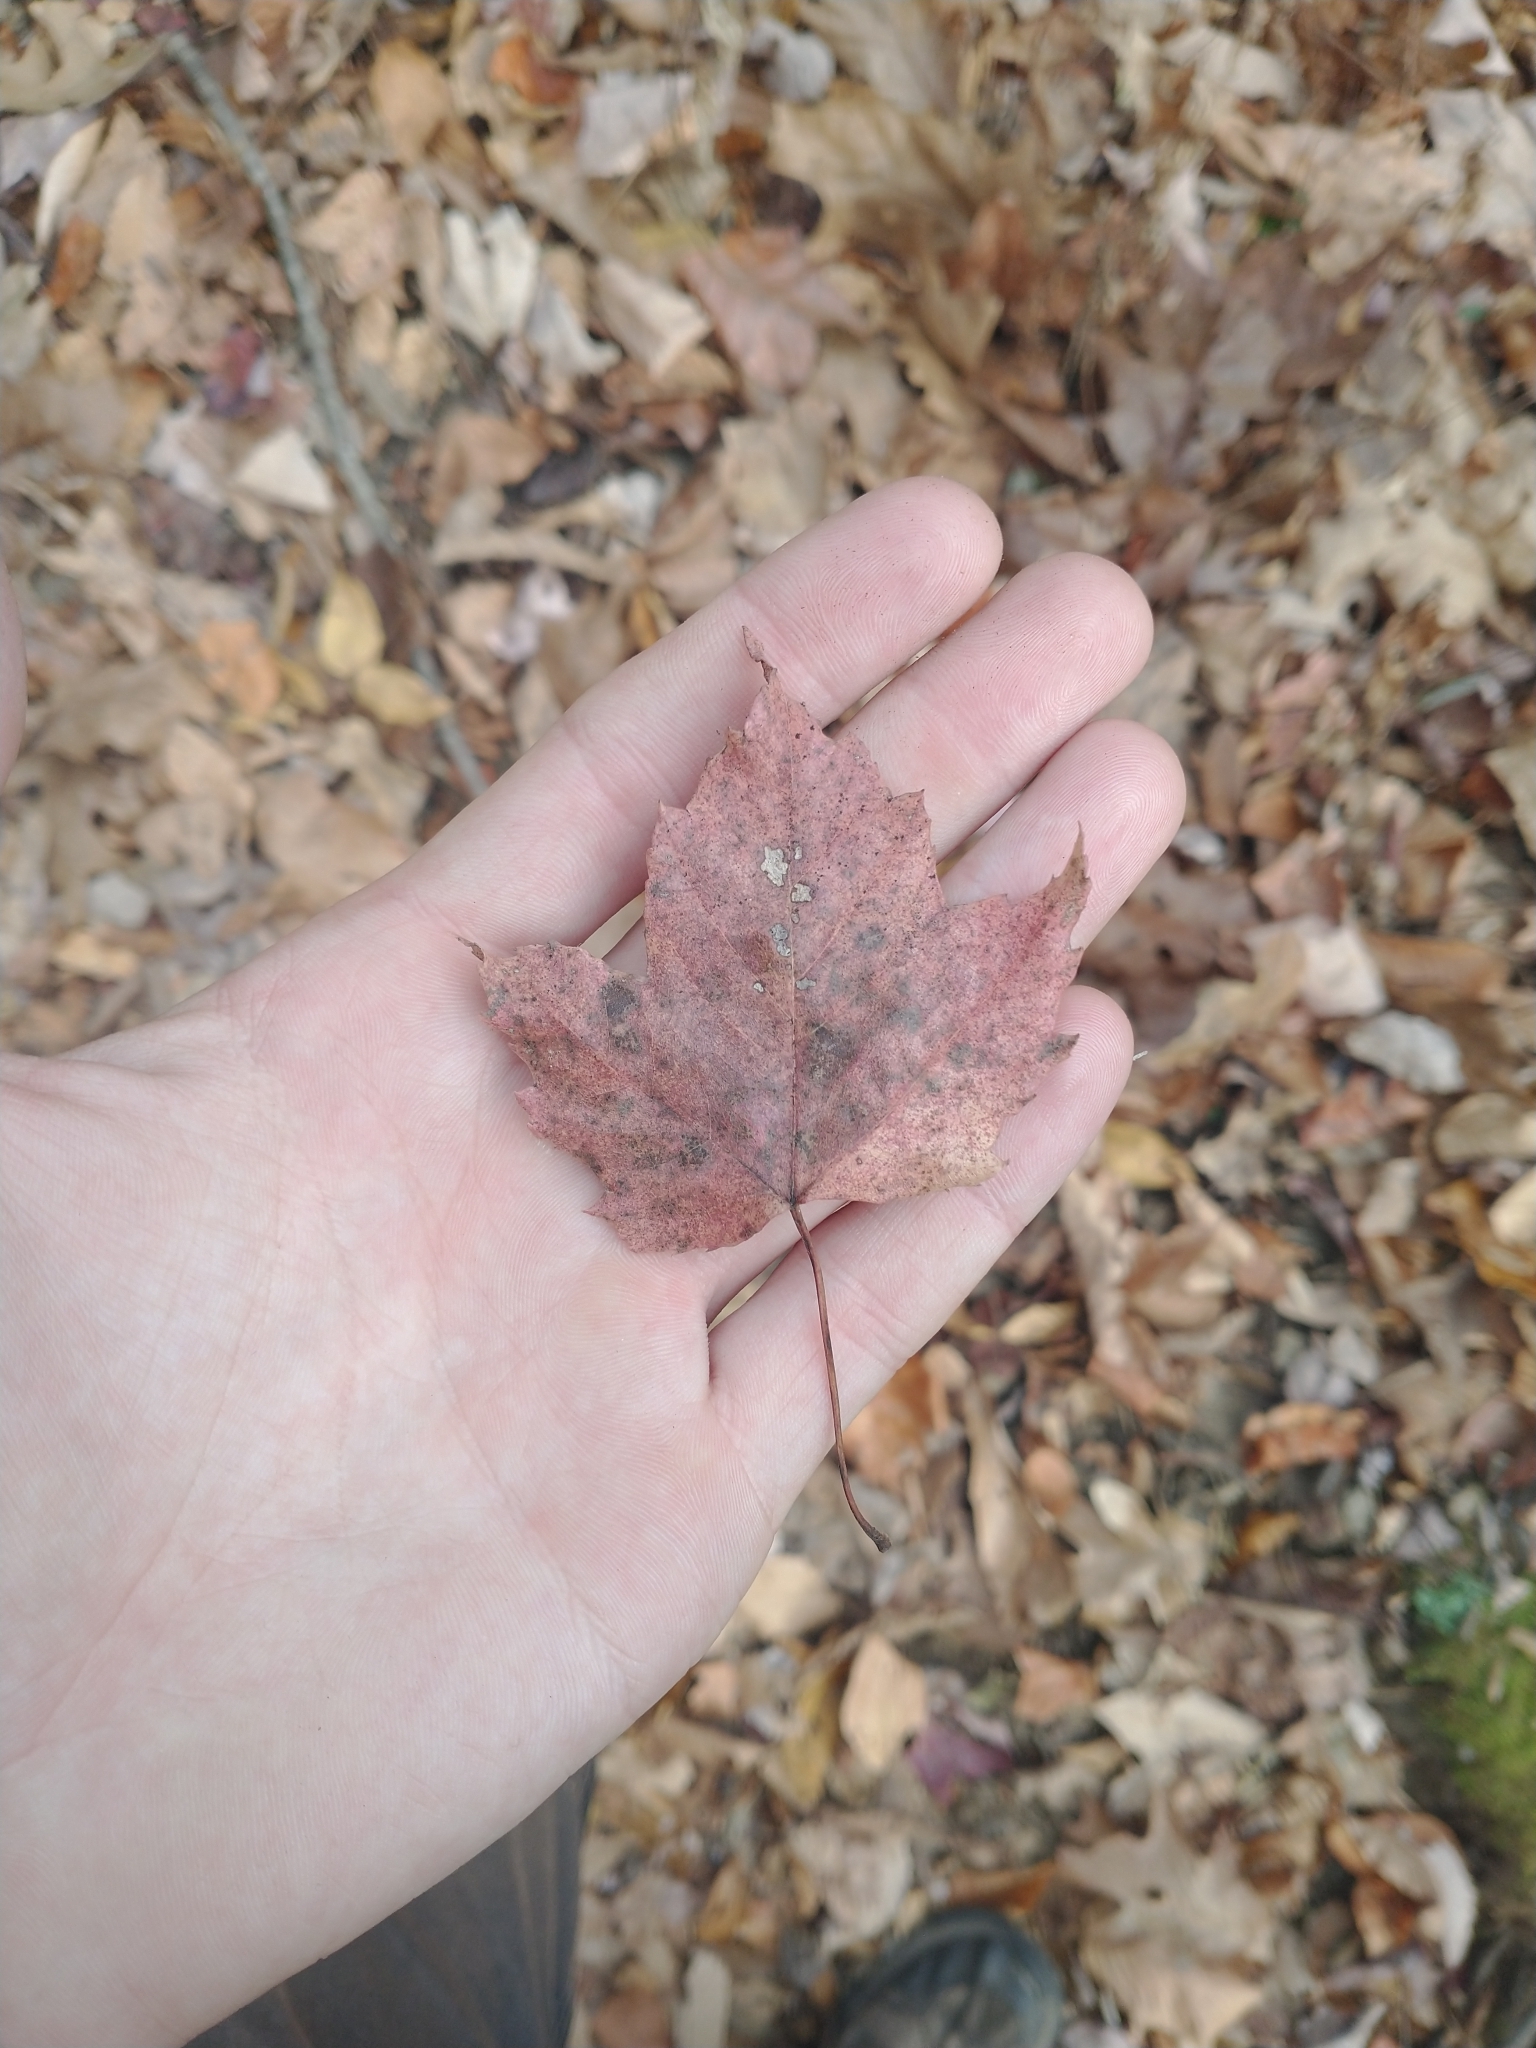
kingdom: Plantae
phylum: Tracheophyta
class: Magnoliopsida
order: Sapindales
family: Sapindaceae
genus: Acer
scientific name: Acer rubrum
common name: Red maple
